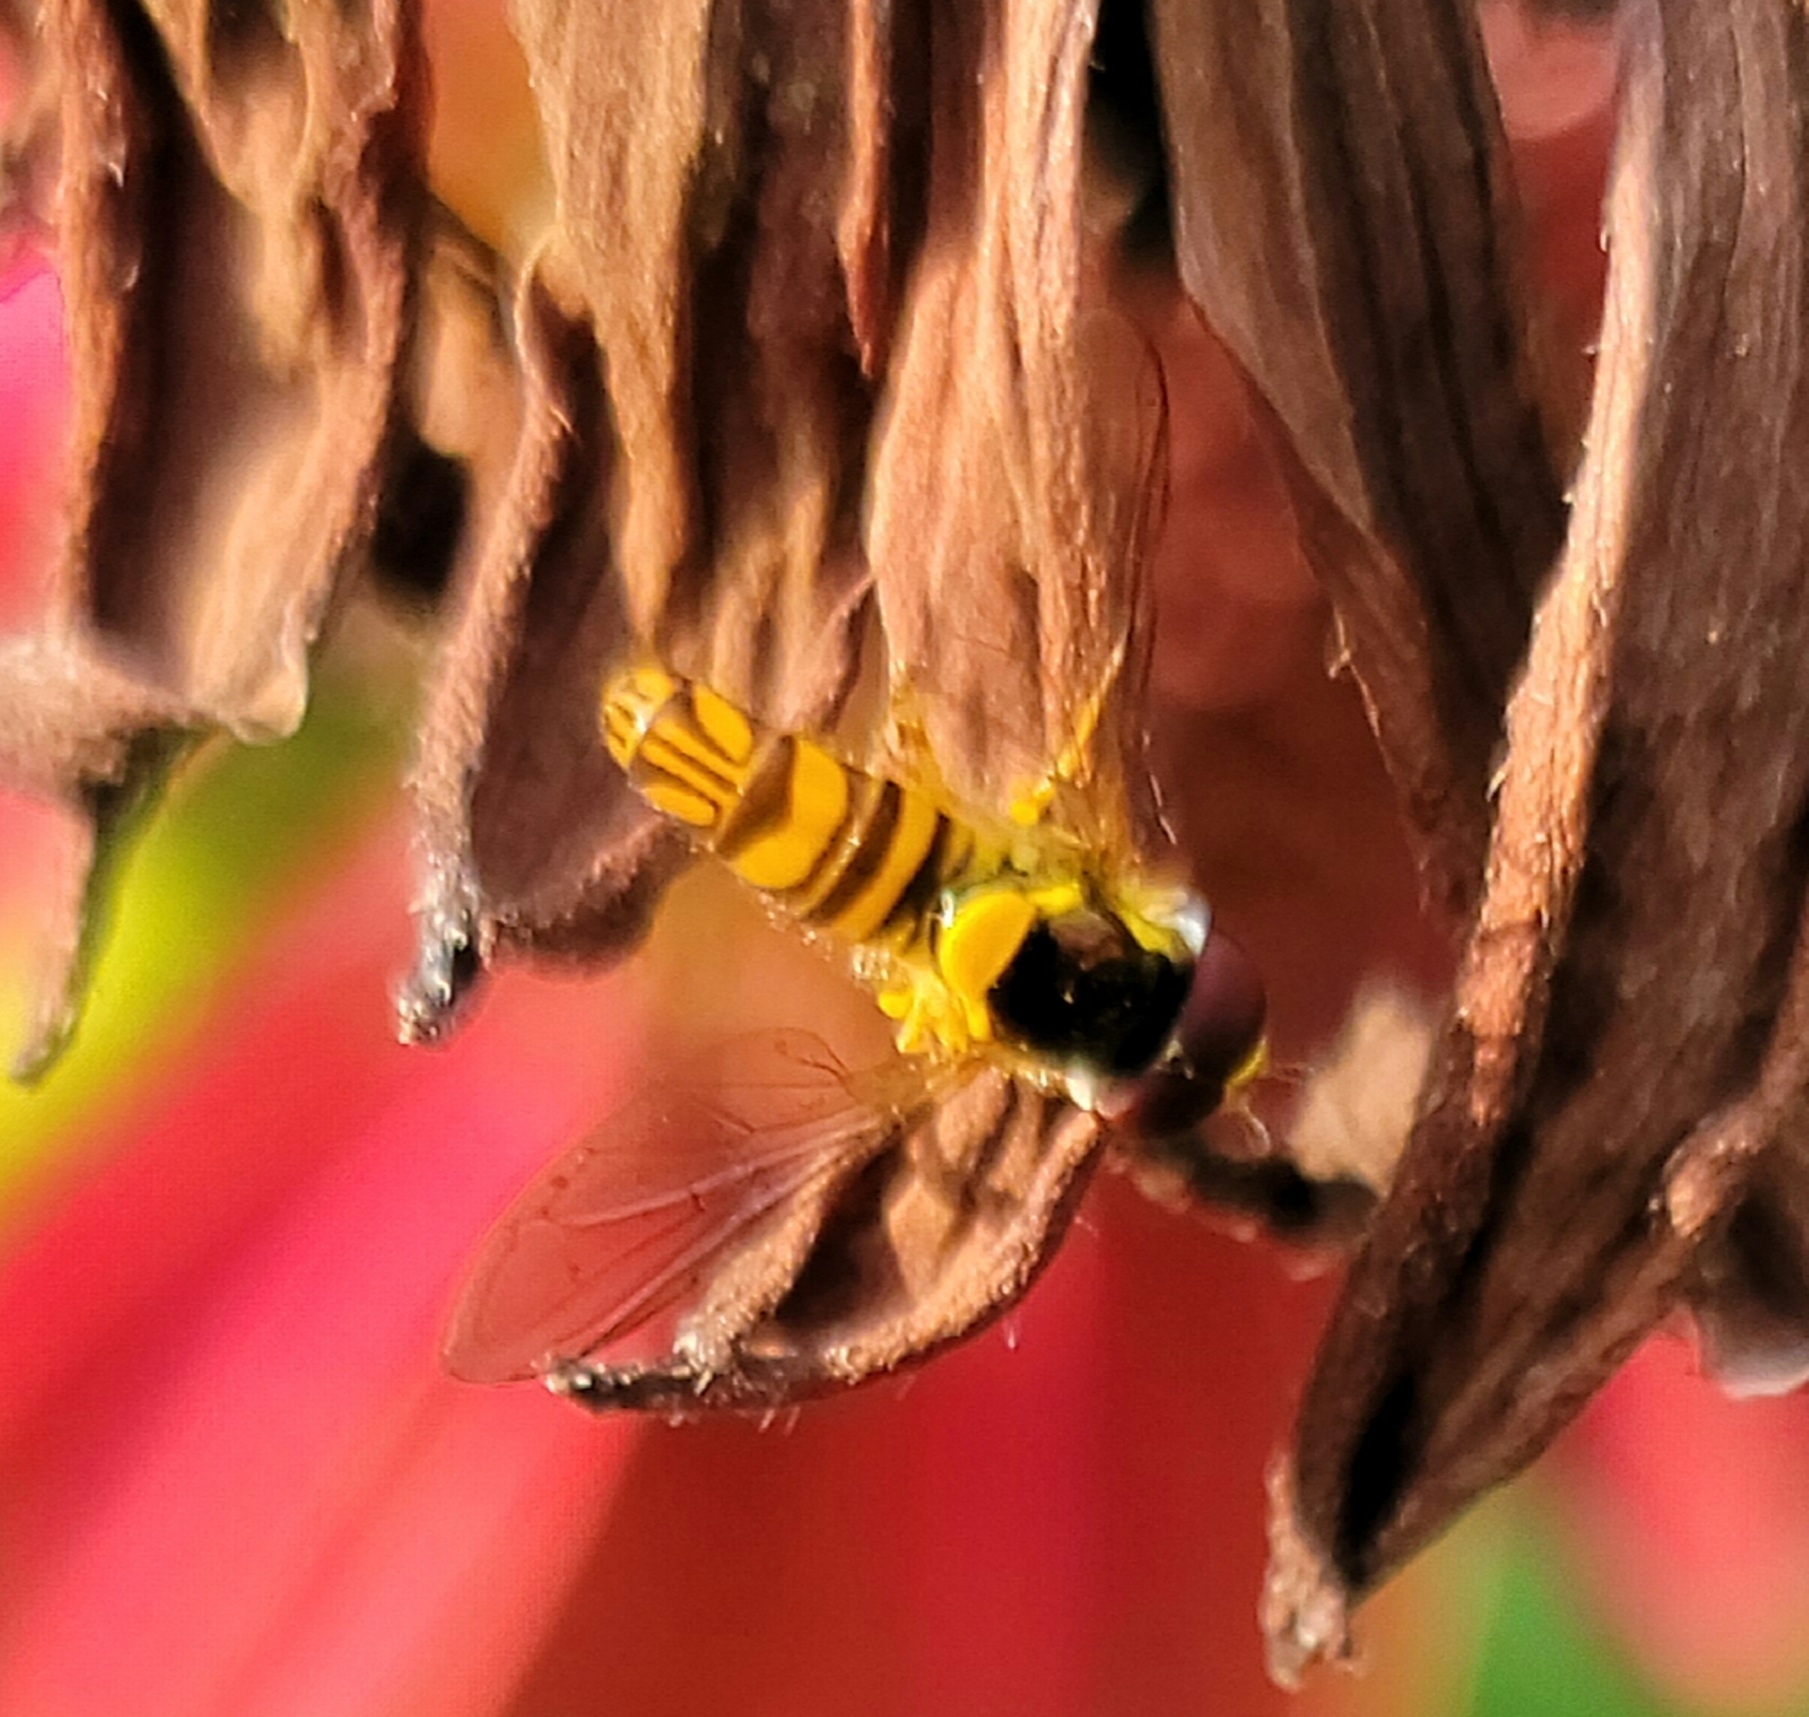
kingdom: Animalia
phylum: Arthropoda
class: Insecta
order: Diptera
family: Syrphidae
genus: Allograpta
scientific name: Allograpta obliqua
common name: Common oblique syrphid
